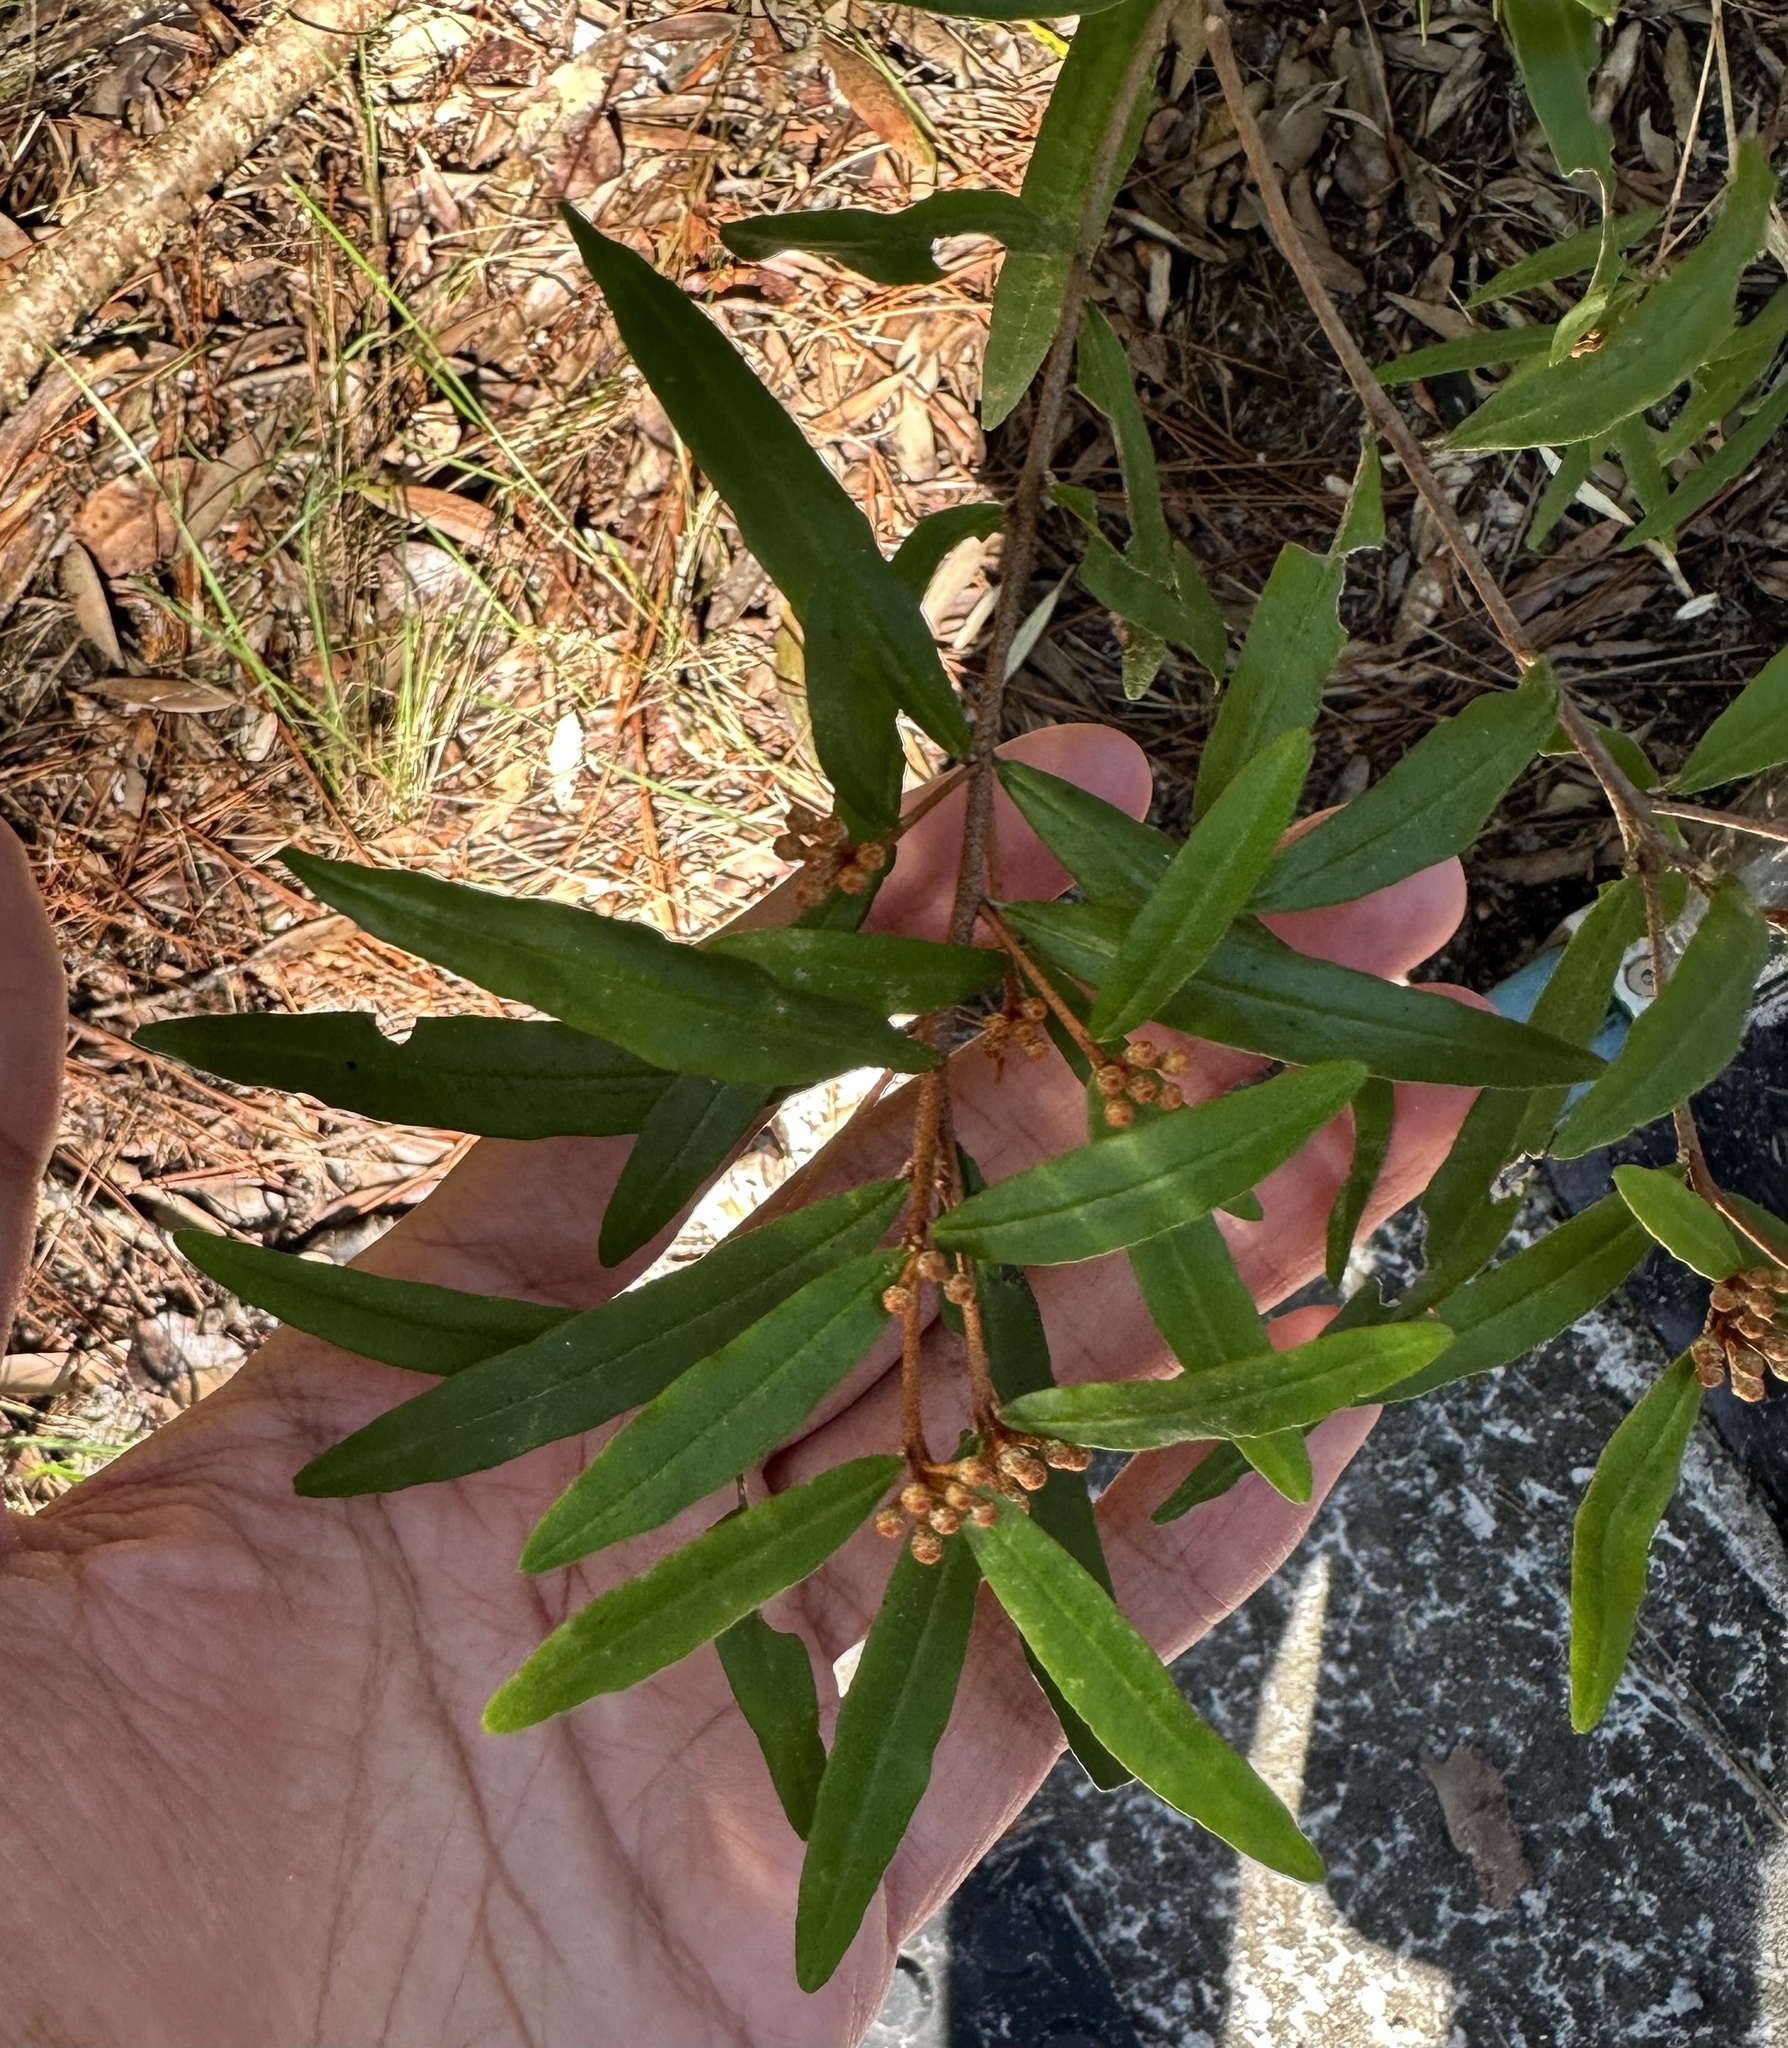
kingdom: Plantae
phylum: Tracheophyta
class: Magnoliopsida
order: Sapindales
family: Rutaceae
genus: Phebalium
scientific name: Phebalium woombye
